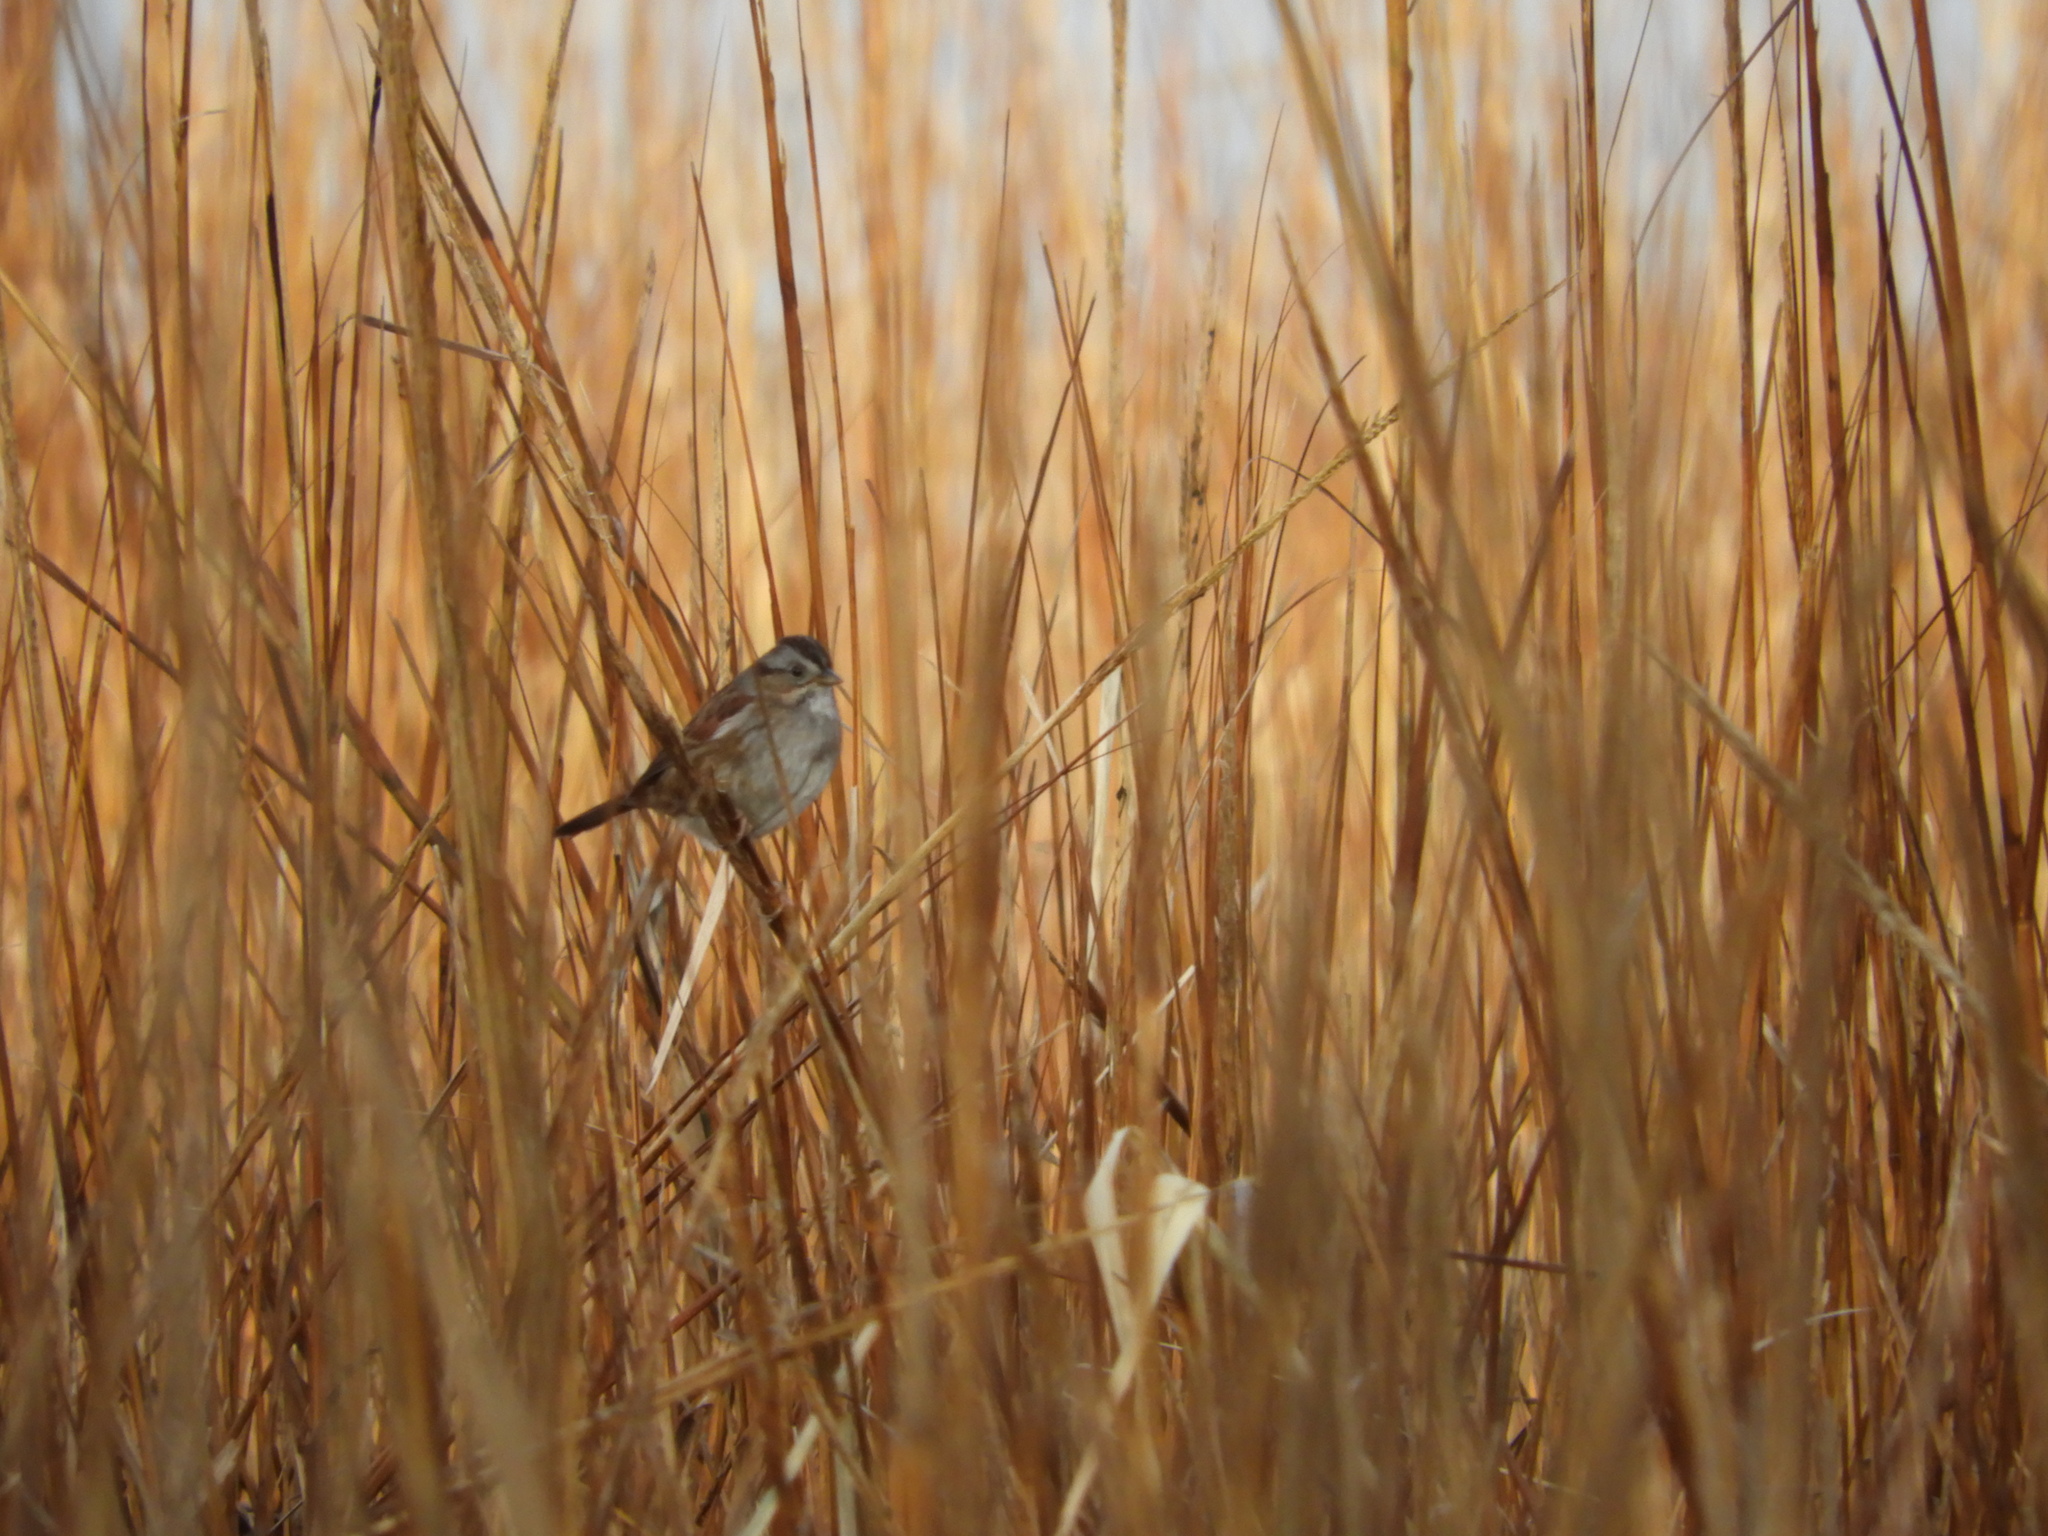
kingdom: Animalia
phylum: Chordata
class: Aves
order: Passeriformes
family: Passerellidae
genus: Melospiza
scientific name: Melospiza georgiana
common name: Swamp sparrow
